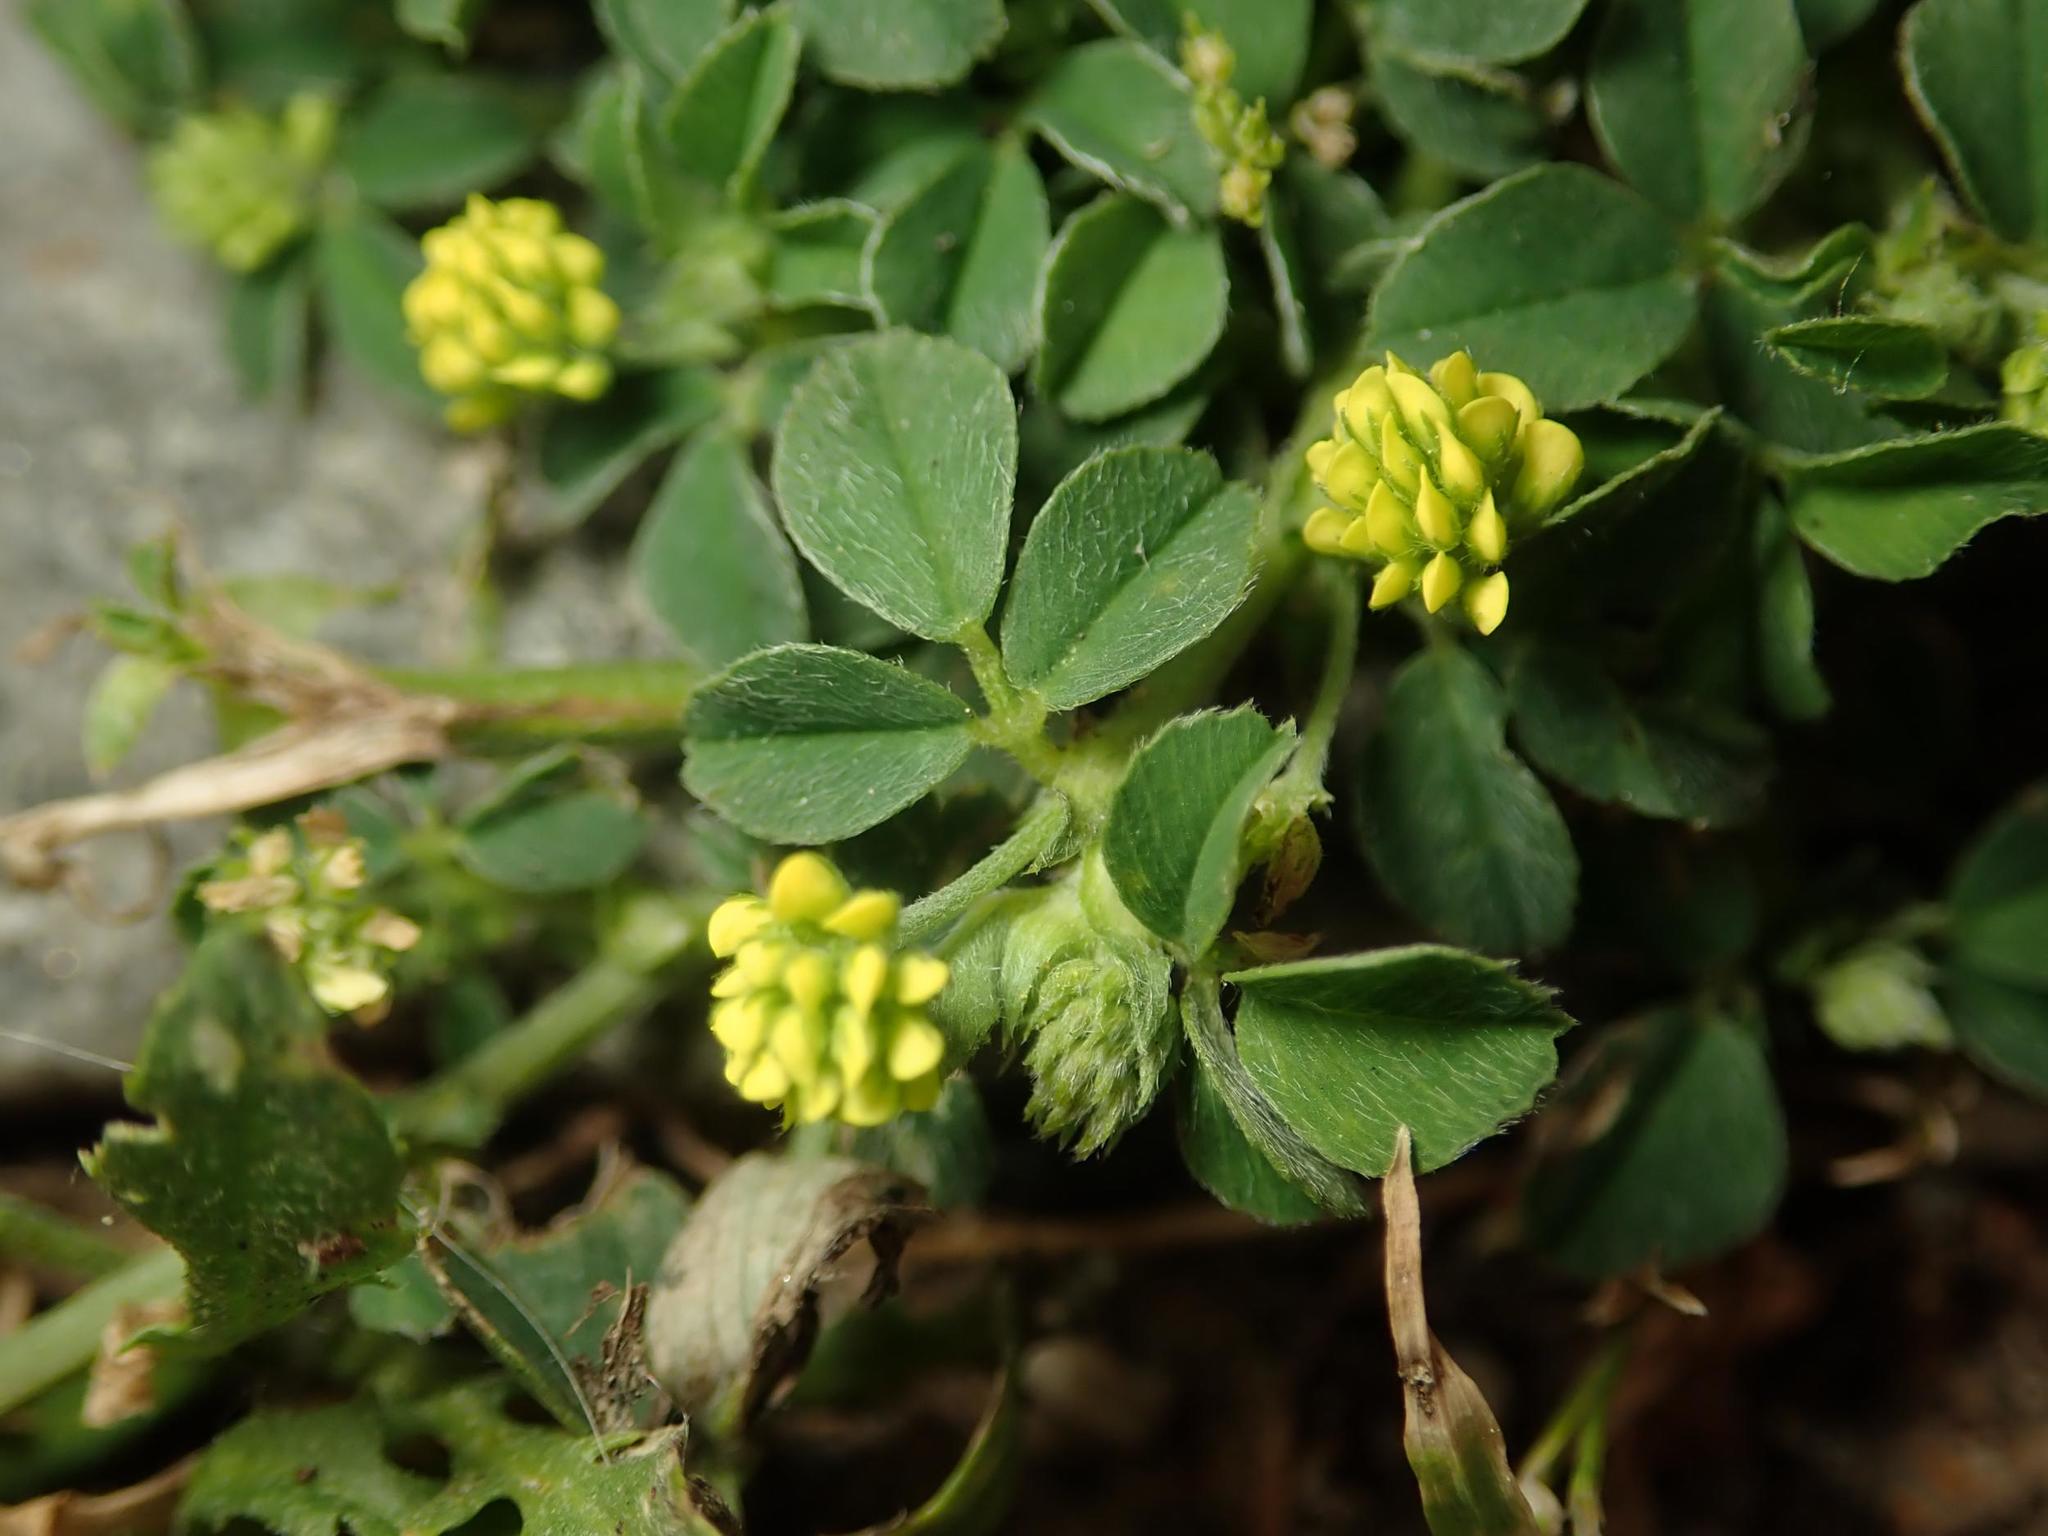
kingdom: Plantae
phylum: Tracheophyta
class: Magnoliopsida
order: Fabales
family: Fabaceae
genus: Medicago
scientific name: Medicago lupulina
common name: Black medick
